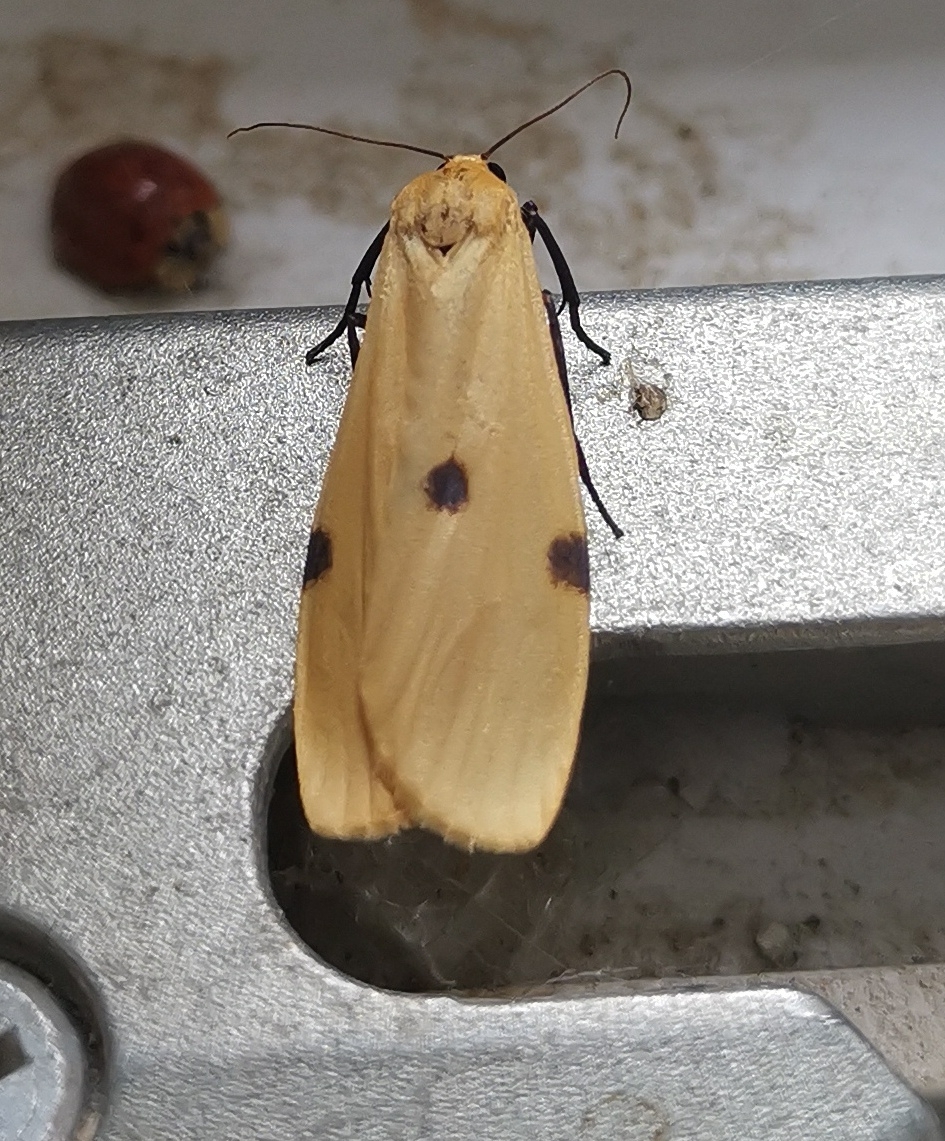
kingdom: Animalia
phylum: Arthropoda
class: Insecta
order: Lepidoptera
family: Erebidae
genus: Lithosia
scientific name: Lithosia quadra
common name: Four-spotted footman
